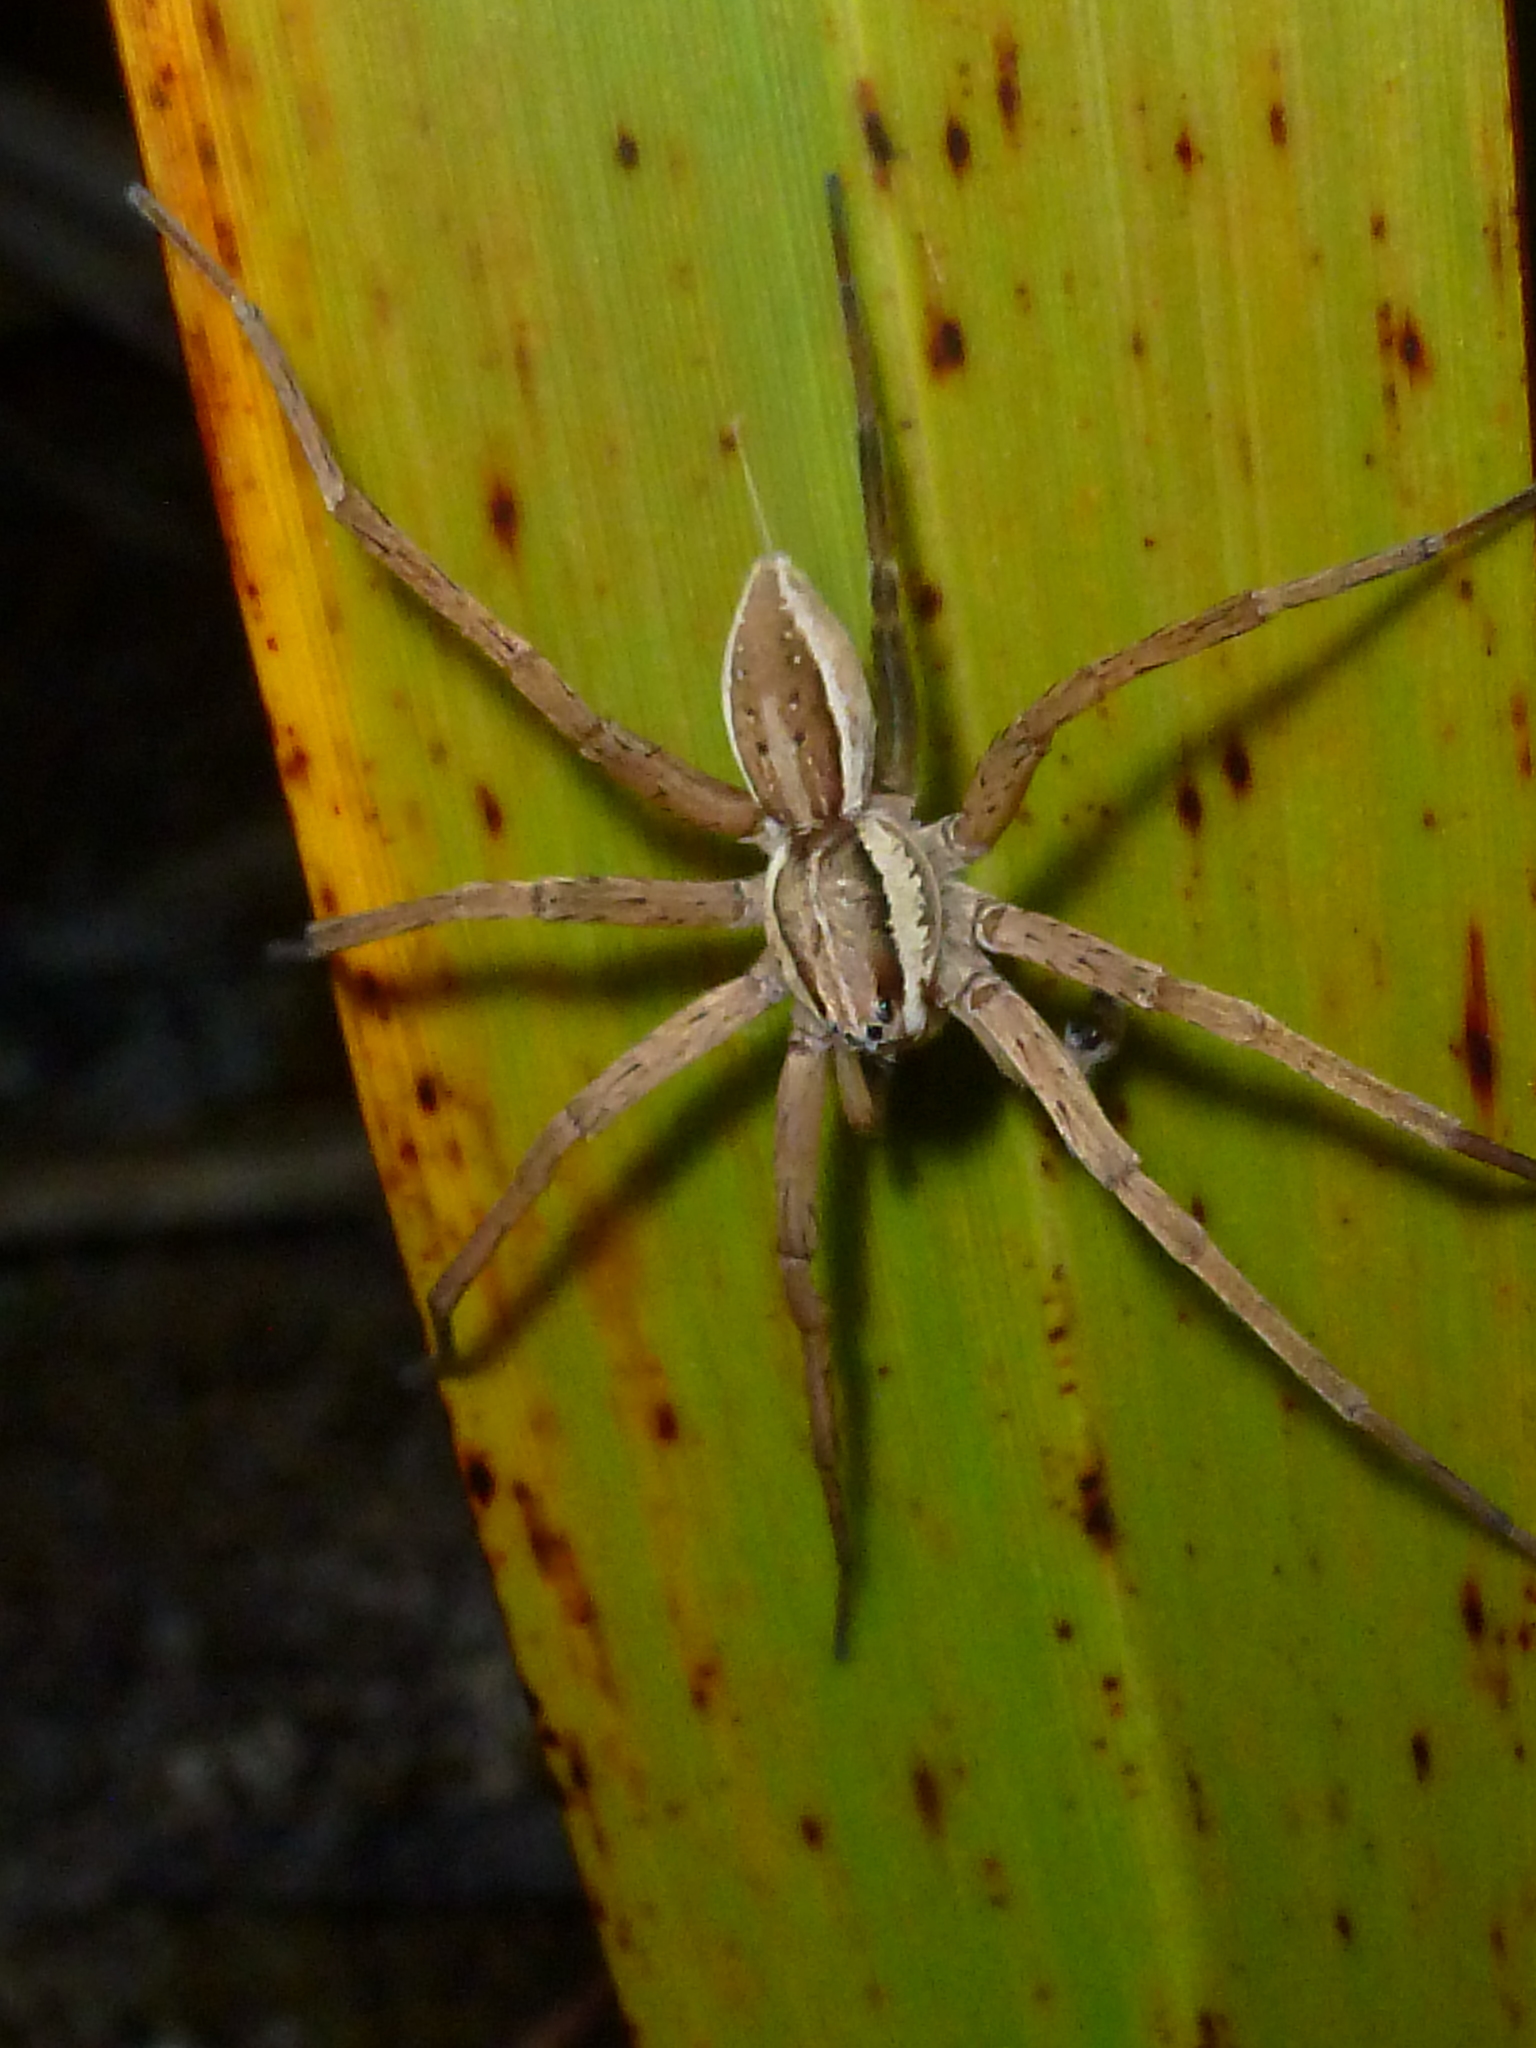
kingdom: Animalia
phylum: Arthropoda
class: Arachnida
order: Araneae
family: Pisauridae
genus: Dolomedes
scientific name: Dolomedes minor
